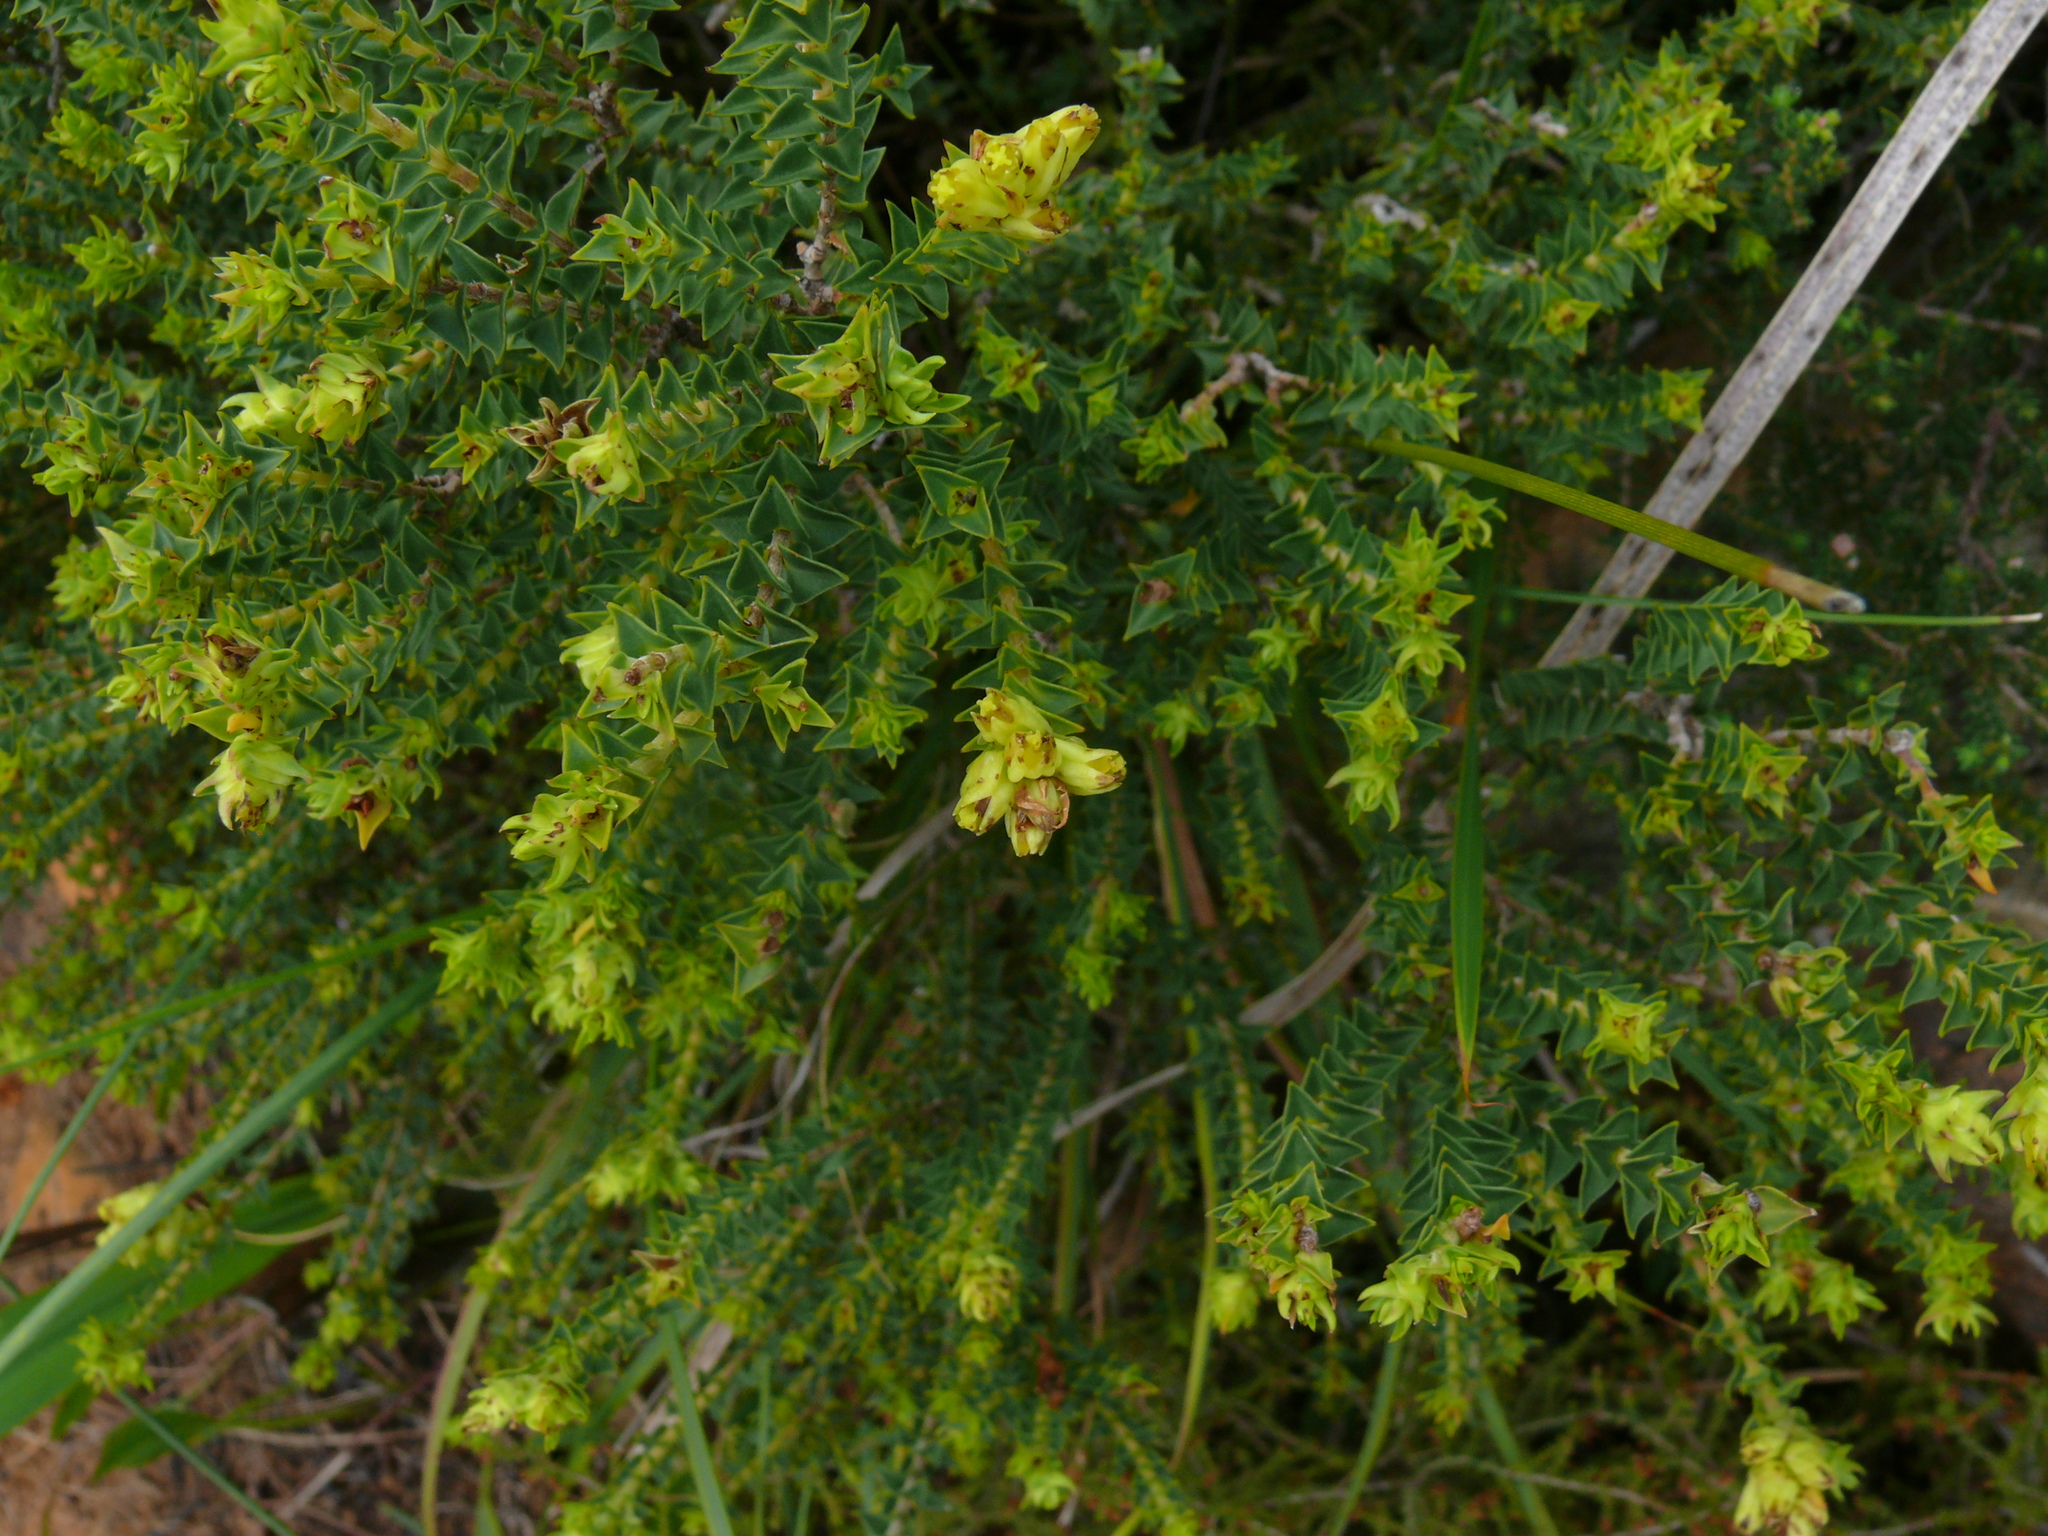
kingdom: Plantae
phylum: Tracheophyta
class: Magnoliopsida
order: Myrtales
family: Penaeaceae
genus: Penaea
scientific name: Penaea mucronata
